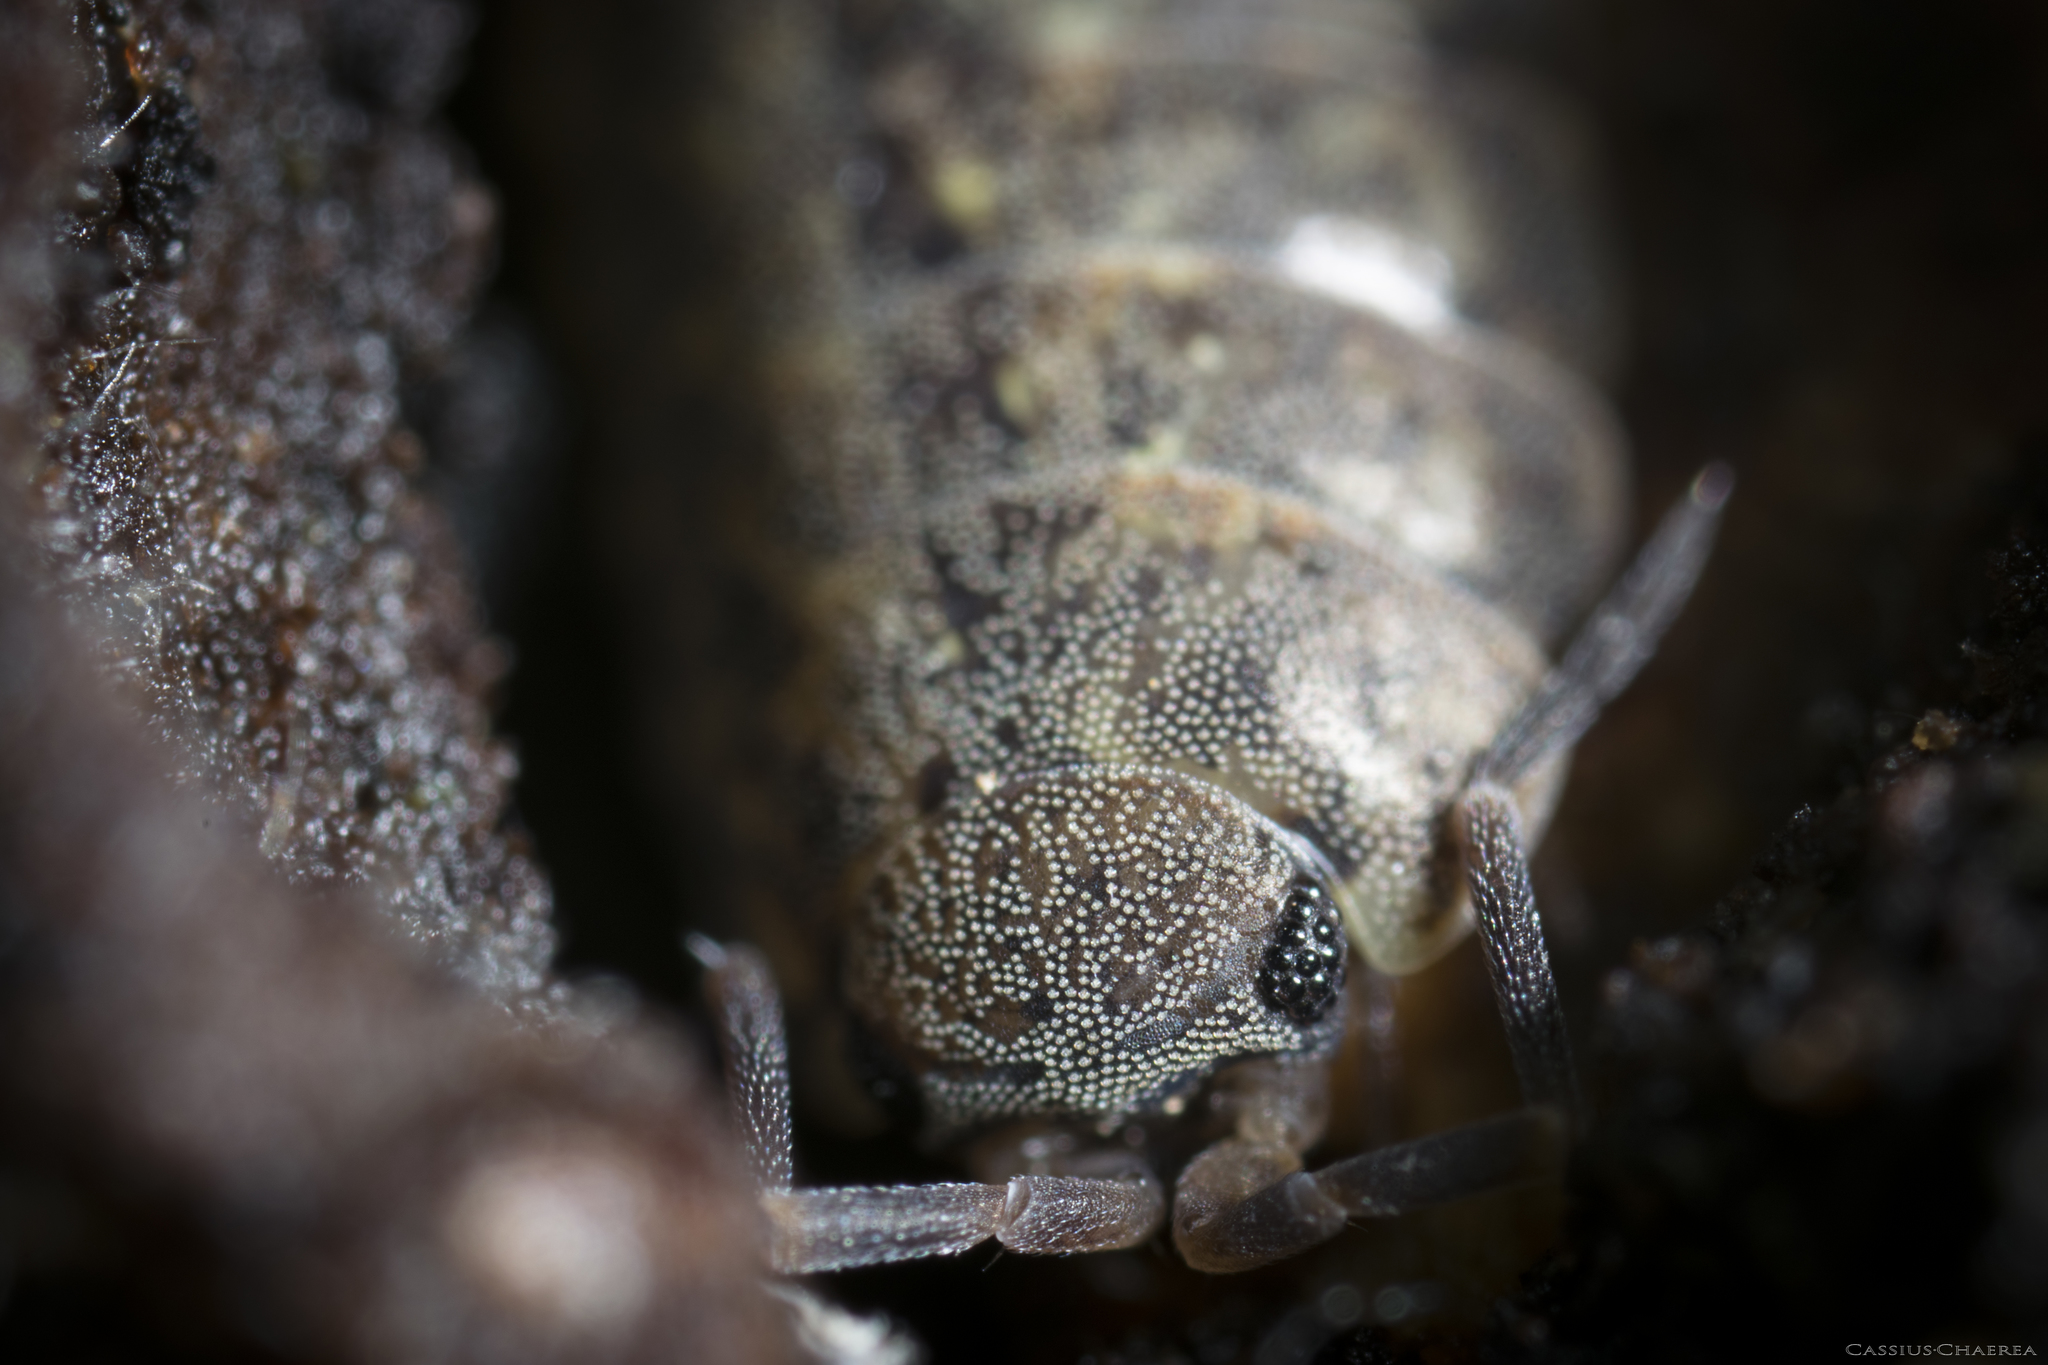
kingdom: Animalia
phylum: Arthropoda
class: Malacostraca
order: Isopoda
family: Philosciidae
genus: Lepidoniscus
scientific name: Lepidoniscus minutus
